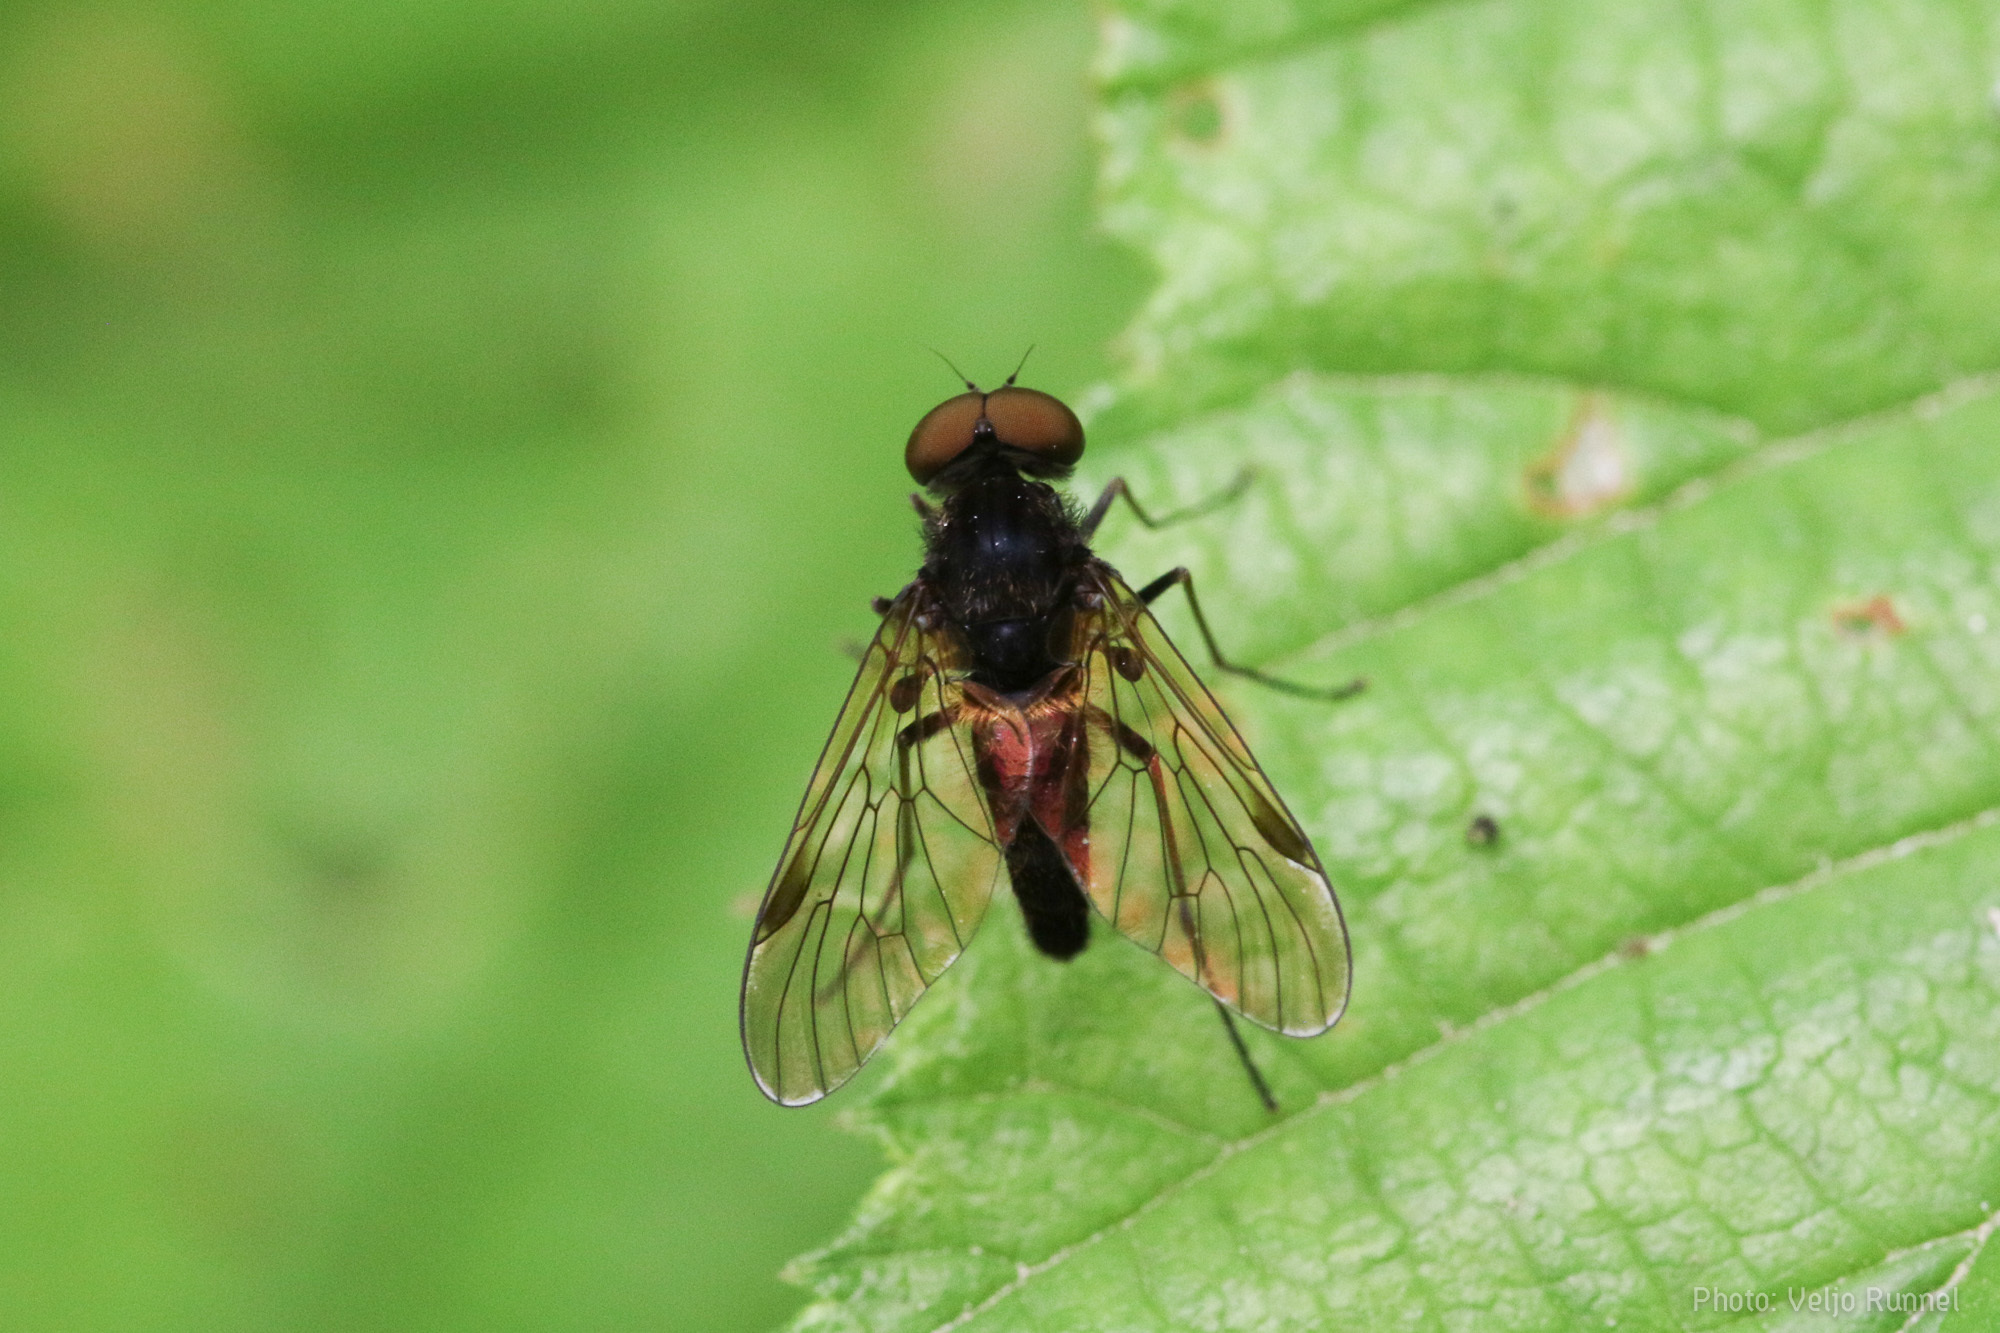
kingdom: Animalia
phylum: Arthropoda
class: Insecta
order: Diptera
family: Rhagionidae
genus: Chrysopilus
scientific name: Chrysopilus cristatus
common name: Black snipefly
